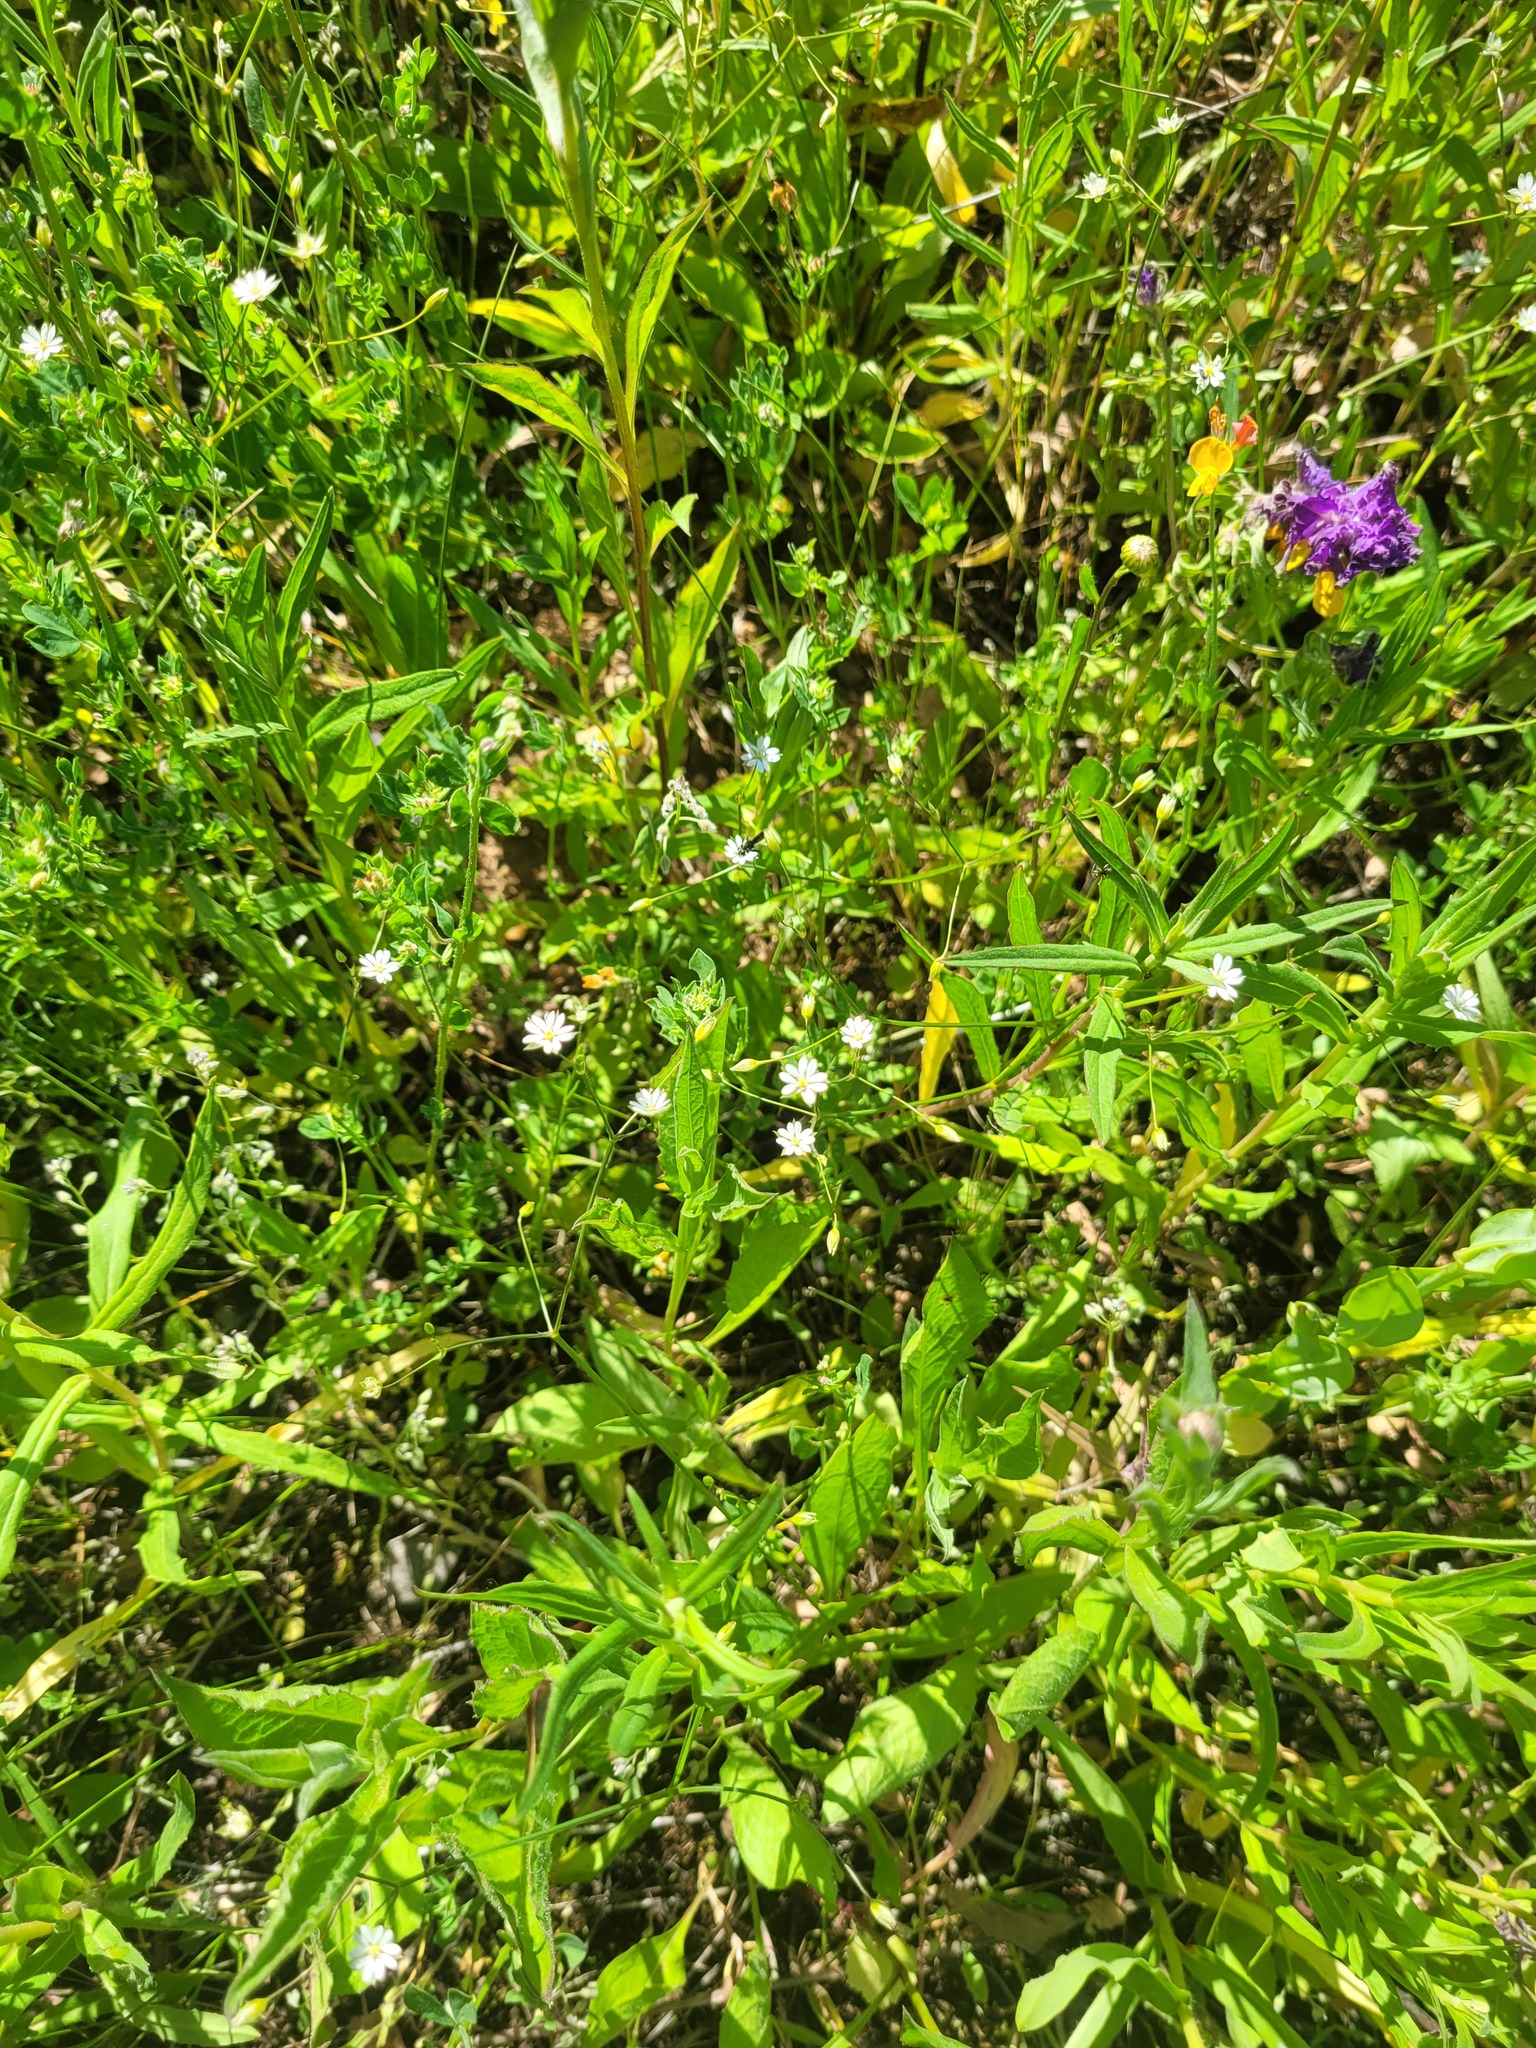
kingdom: Plantae
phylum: Tracheophyta
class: Magnoliopsida
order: Caryophyllales
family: Caryophyllaceae
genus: Stellaria
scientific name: Stellaria graminea
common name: Grass-like starwort
